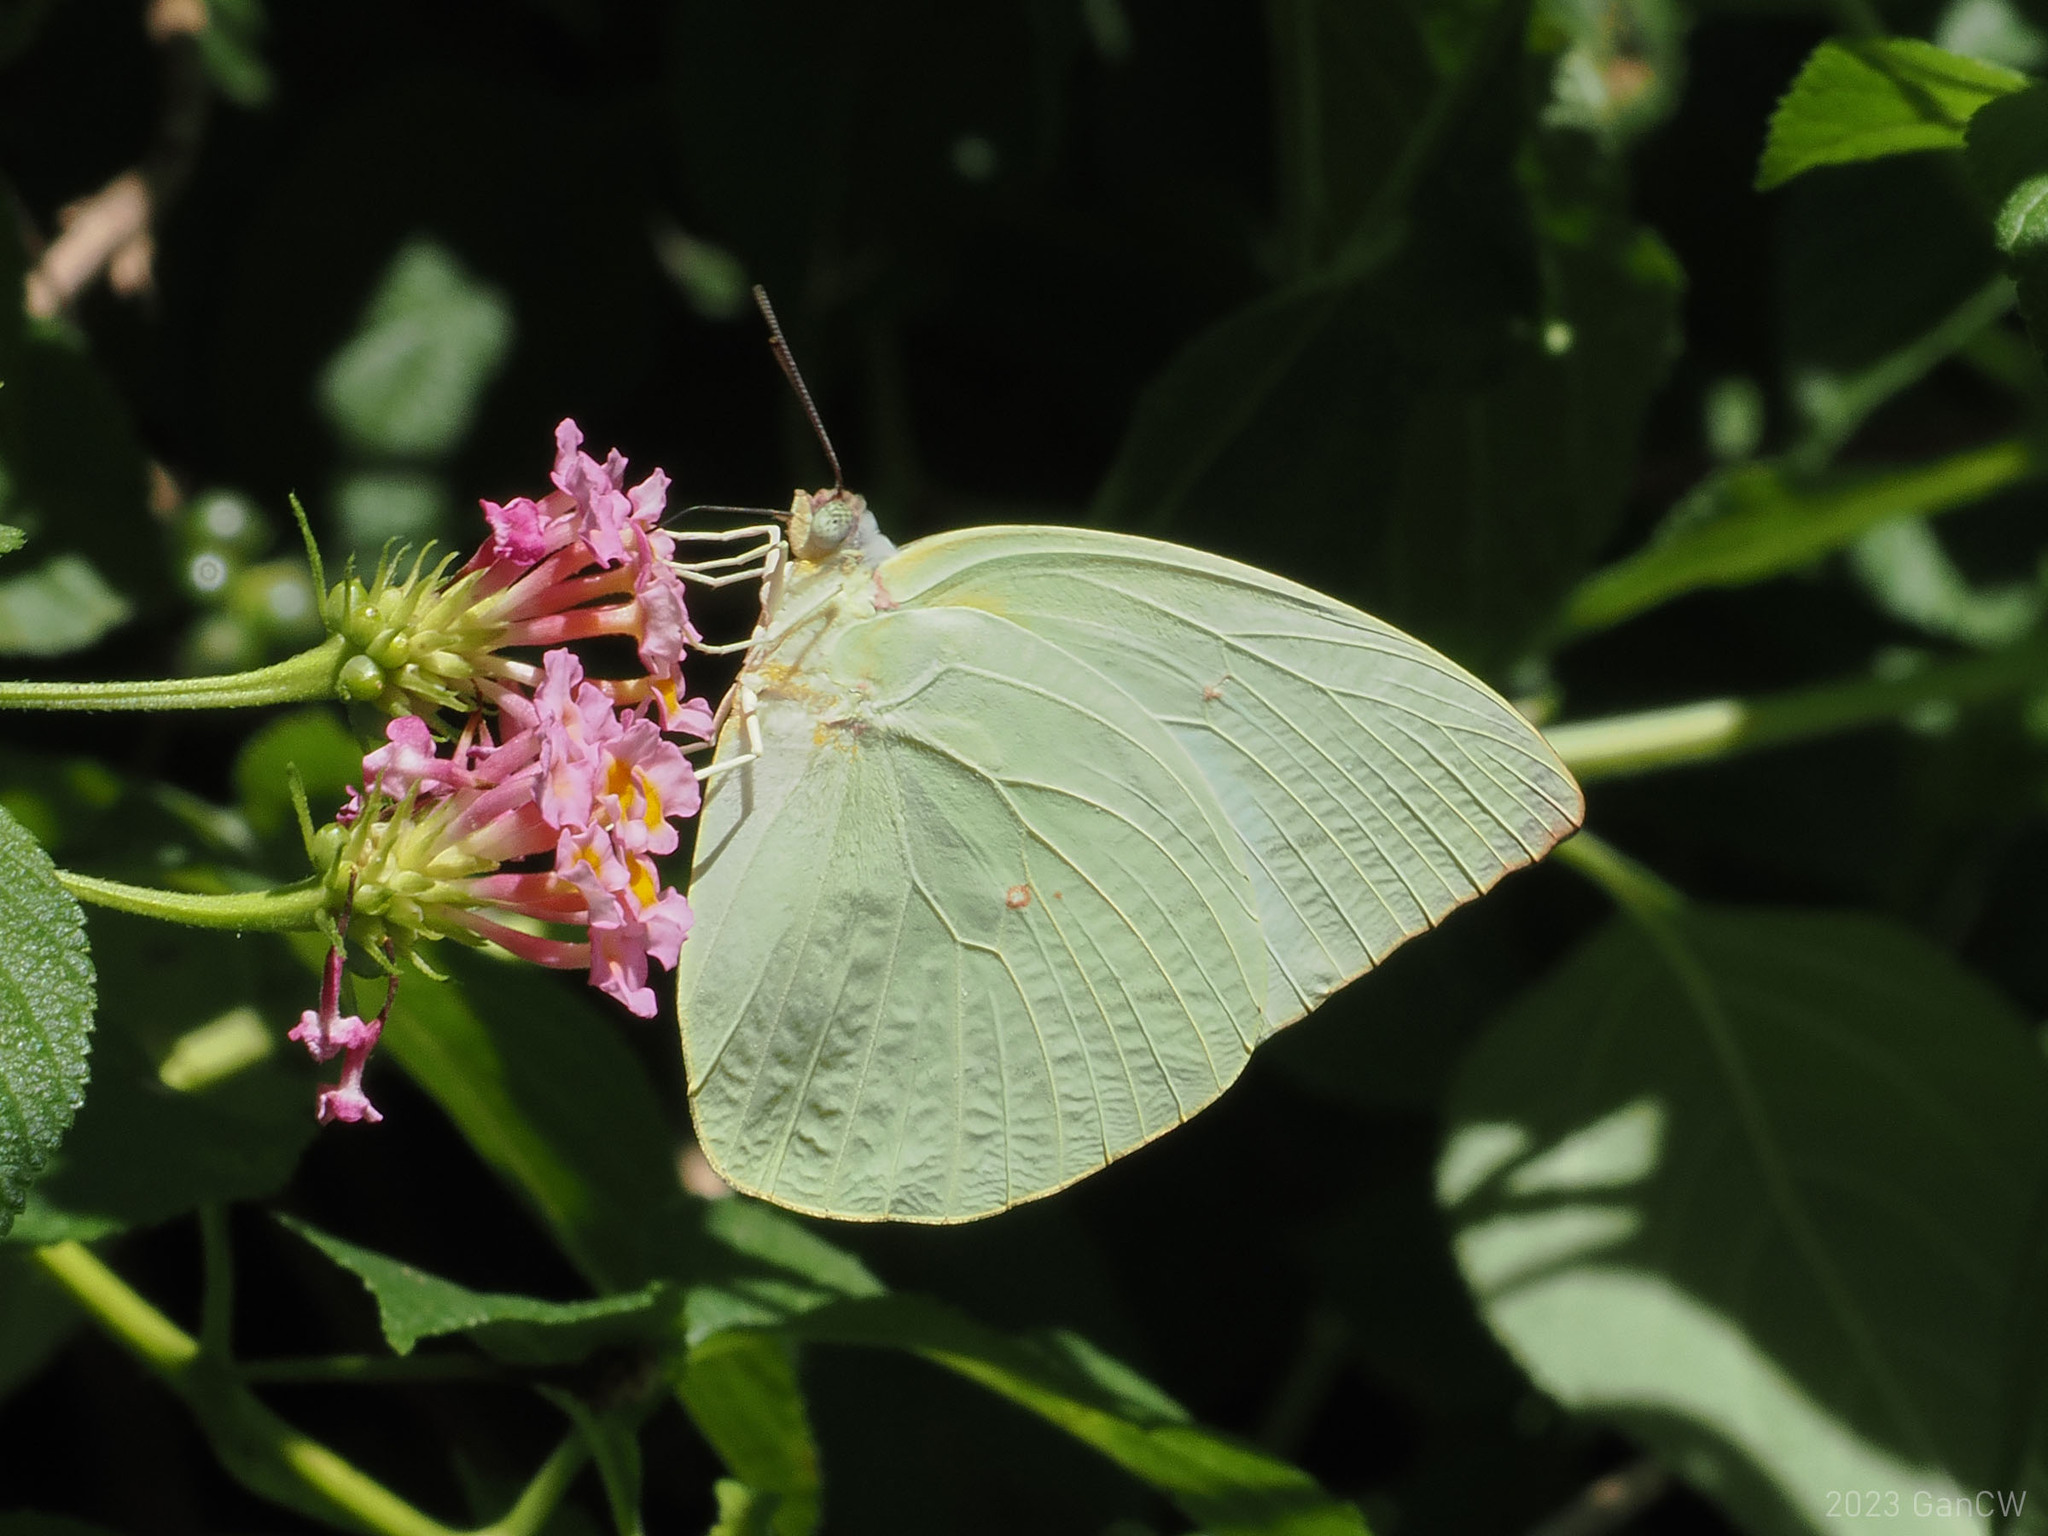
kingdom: Animalia
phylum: Arthropoda
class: Insecta
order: Lepidoptera
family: Pieridae
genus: Catopsilia
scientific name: Catopsilia pomona
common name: Common emigrant
